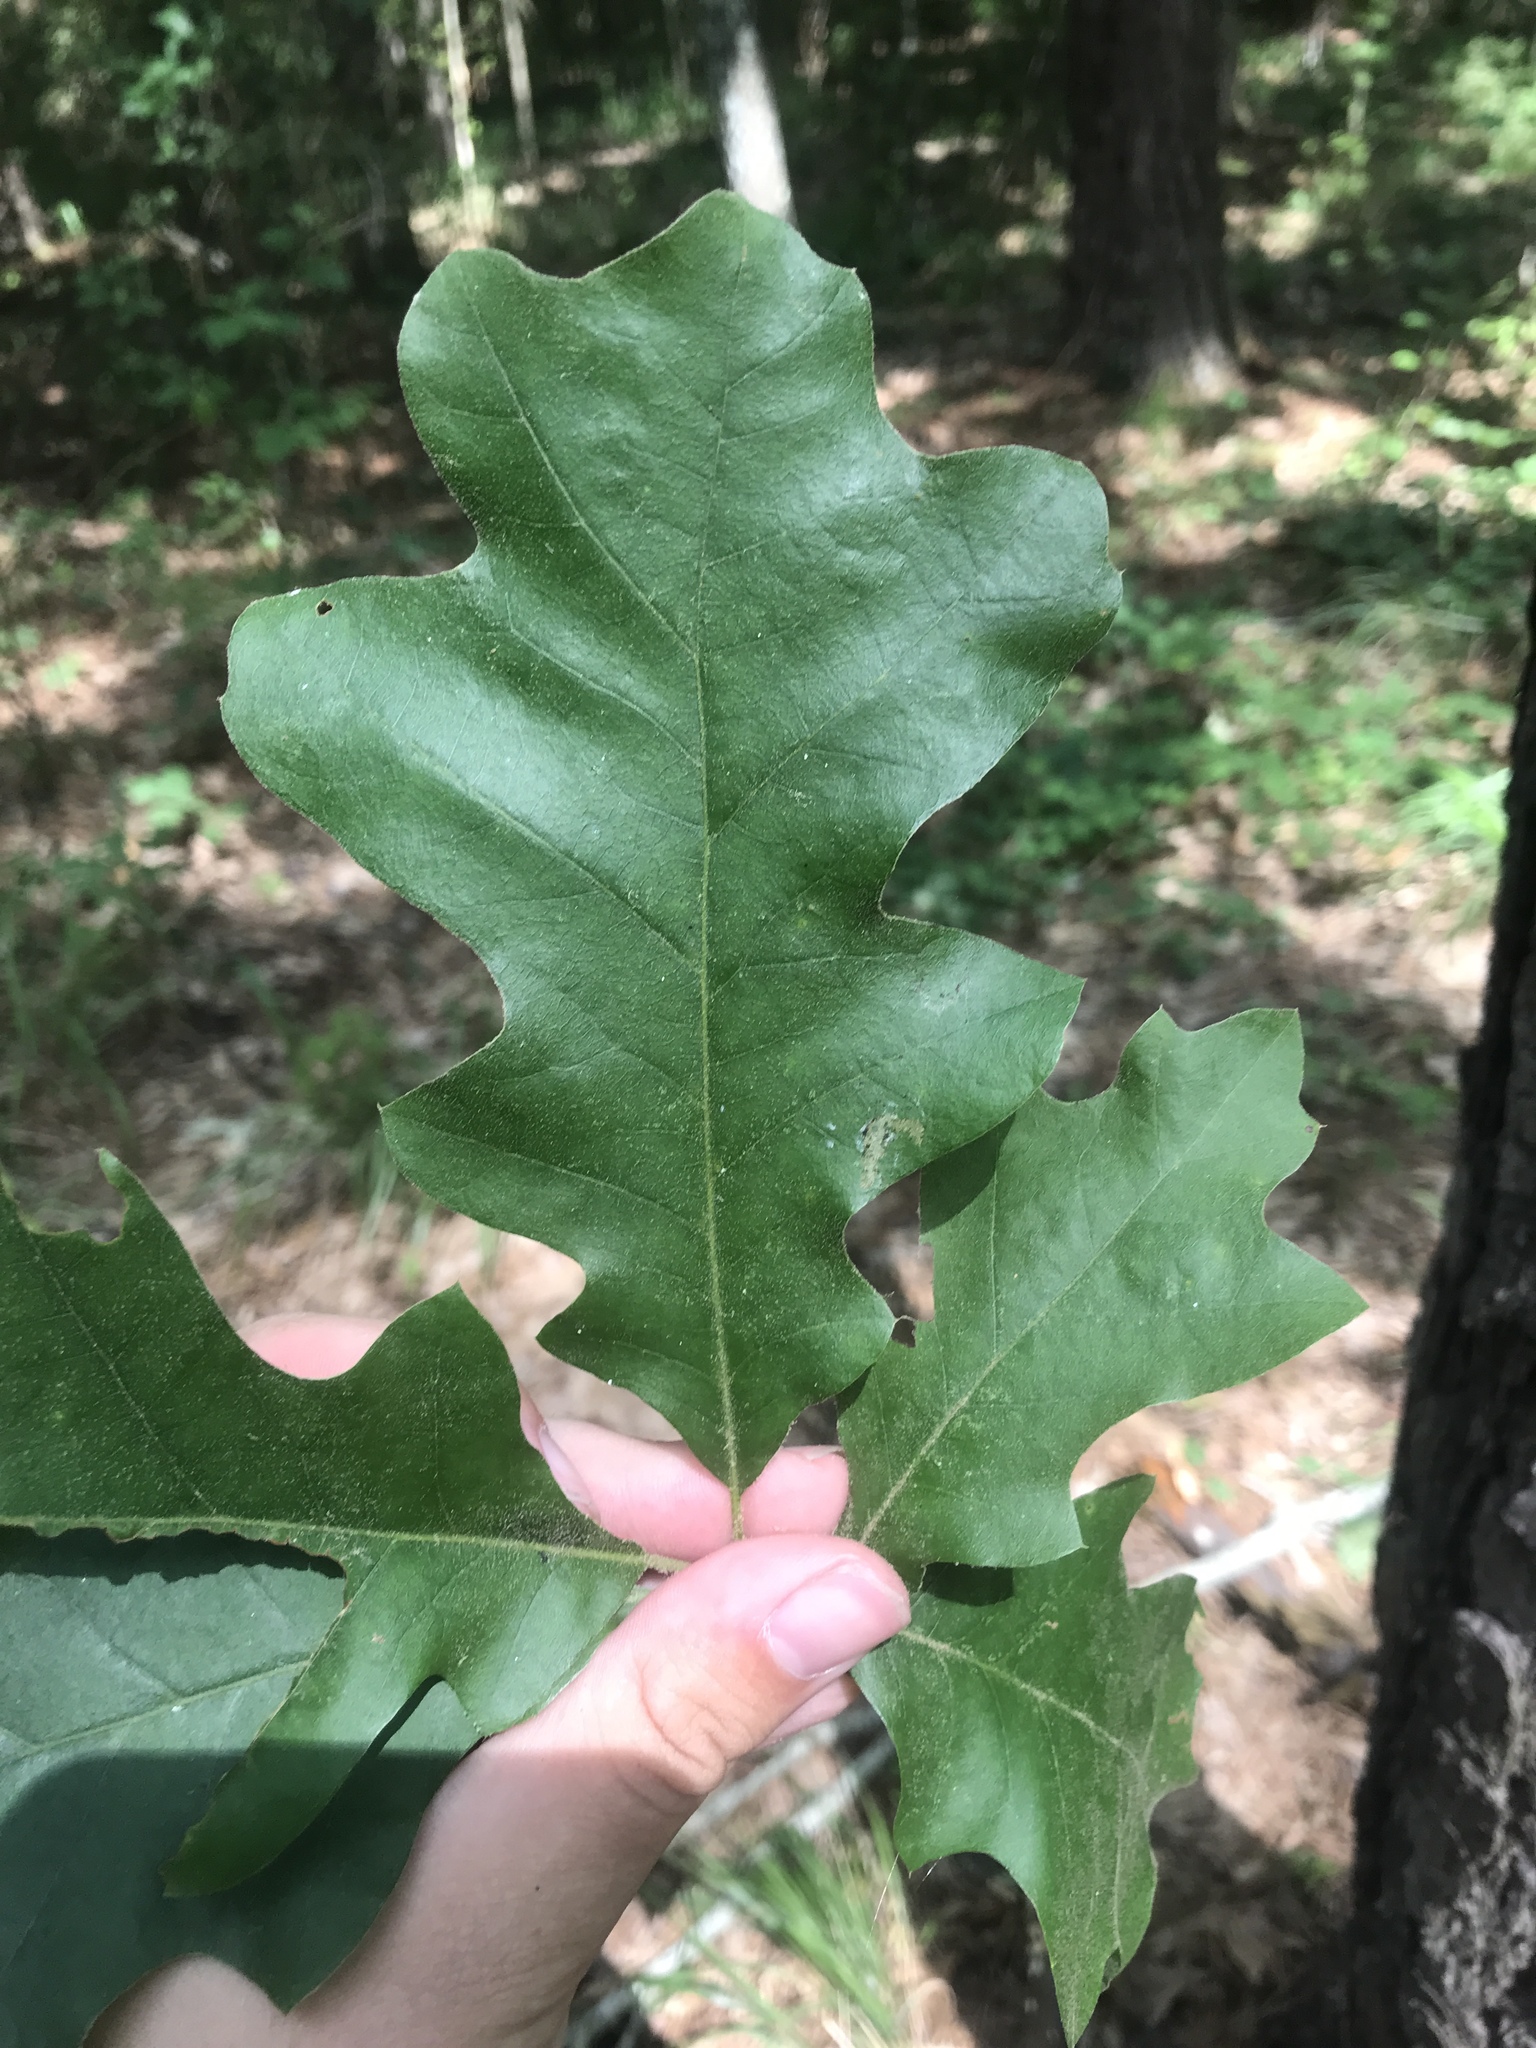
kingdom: Plantae
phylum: Tracheophyta
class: Magnoliopsida
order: Fagales
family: Fagaceae
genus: Quercus
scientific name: Quercus velutina
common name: Black oak
